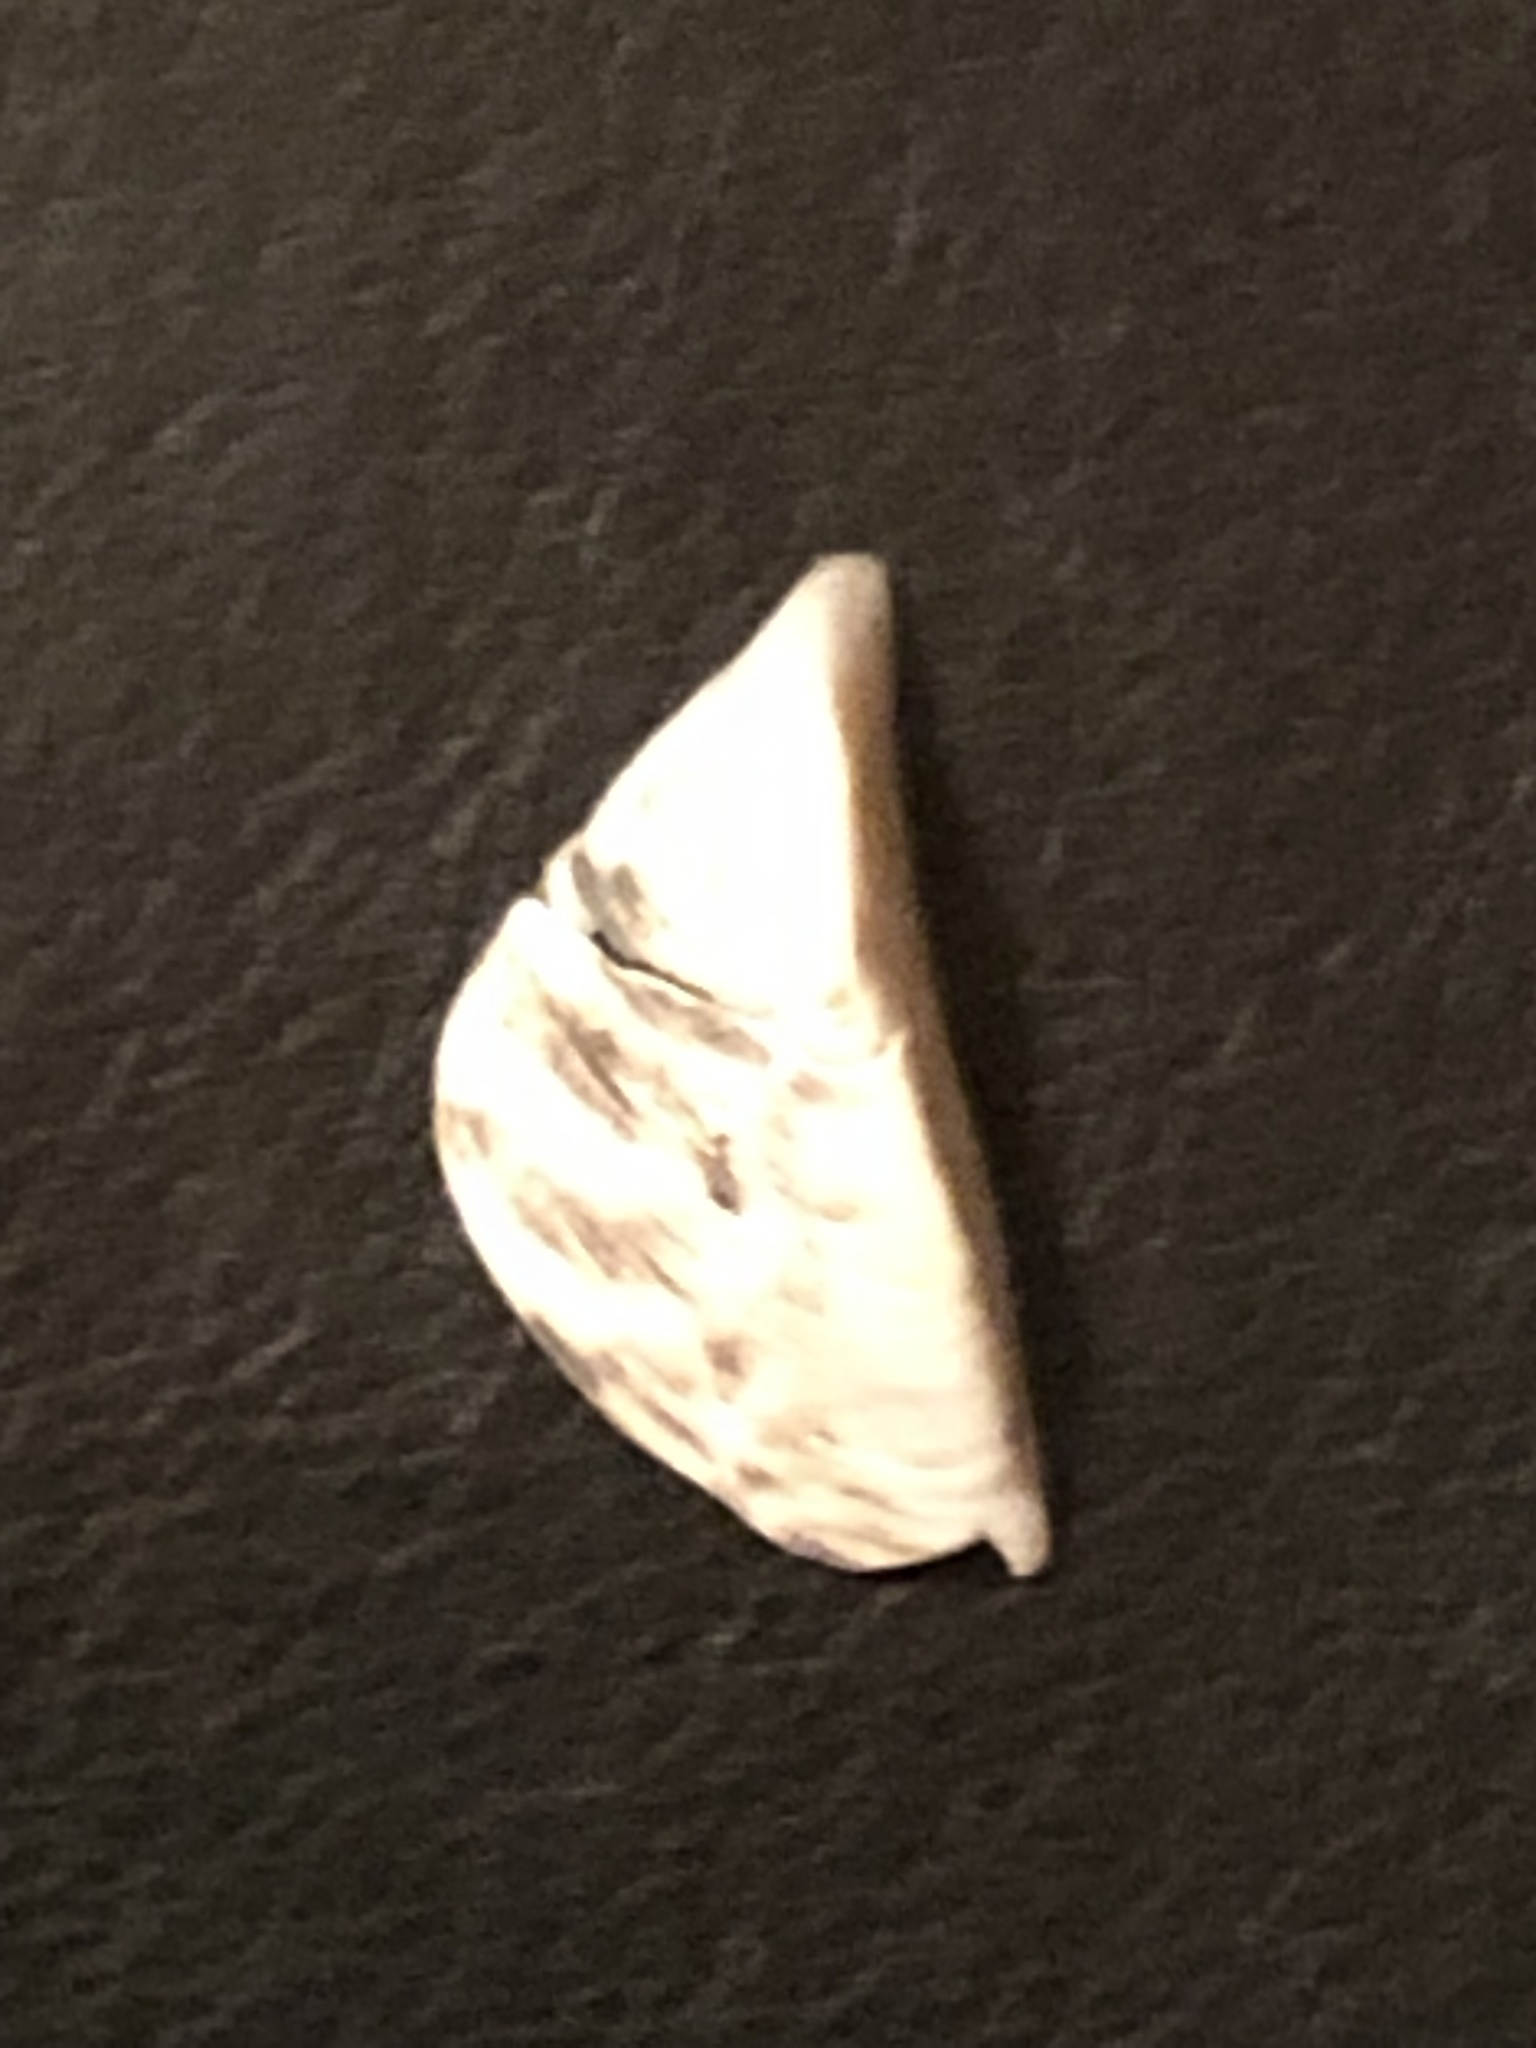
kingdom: Animalia
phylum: Mollusca
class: Bivalvia
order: Myida
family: Dreissenidae
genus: Dreissena
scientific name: Dreissena polymorpha
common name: Zebra mussel
